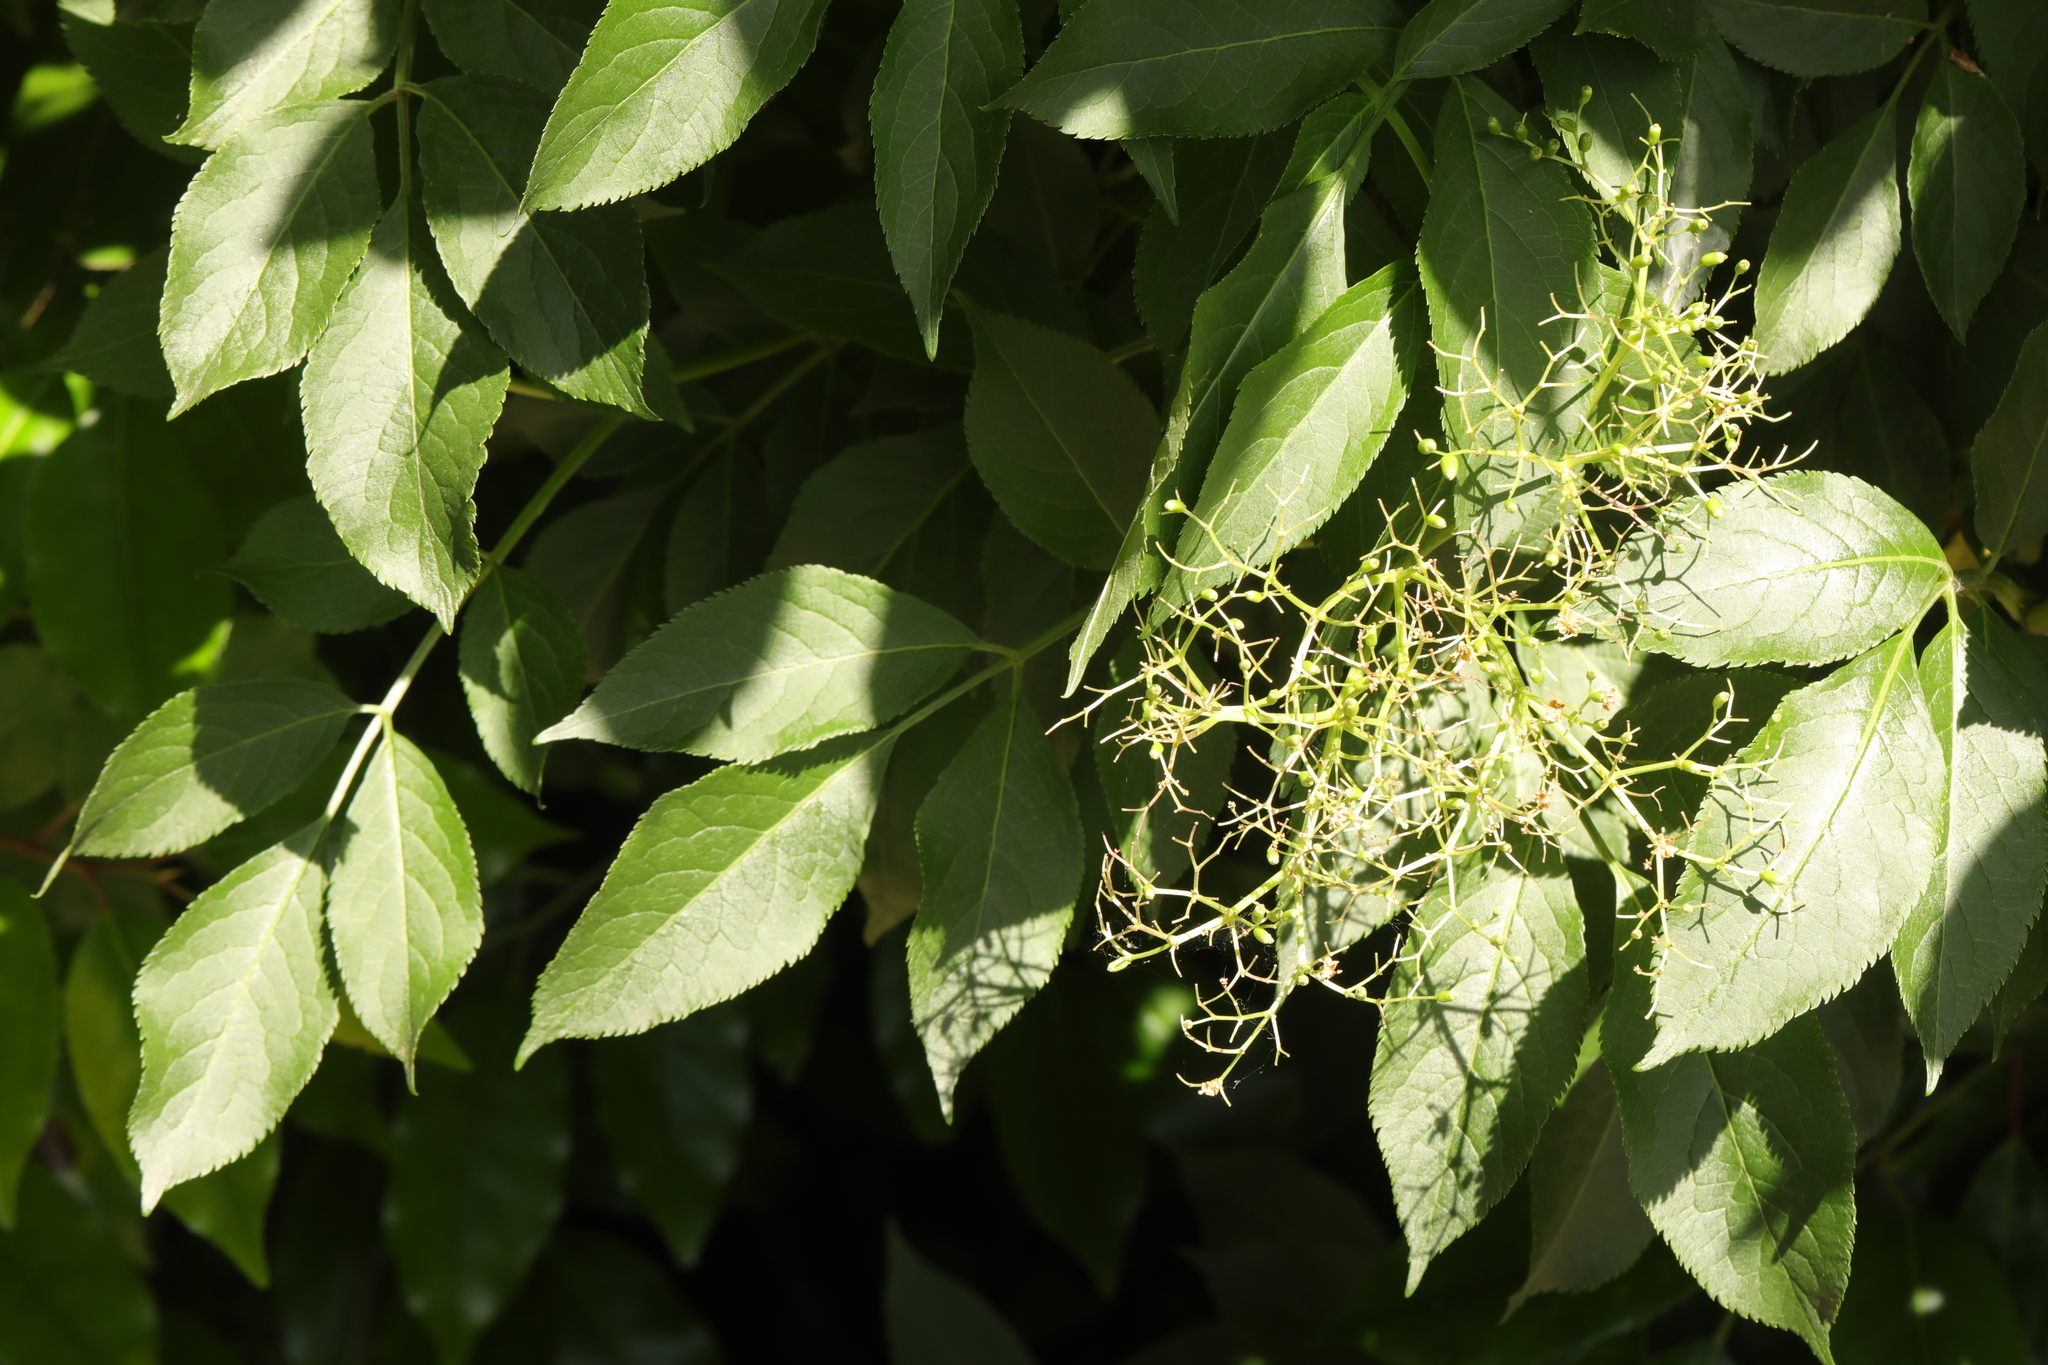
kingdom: Plantae
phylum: Tracheophyta
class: Magnoliopsida
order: Dipsacales
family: Viburnaceae
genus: Sambucus
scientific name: Sambucus nigra
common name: Elder
